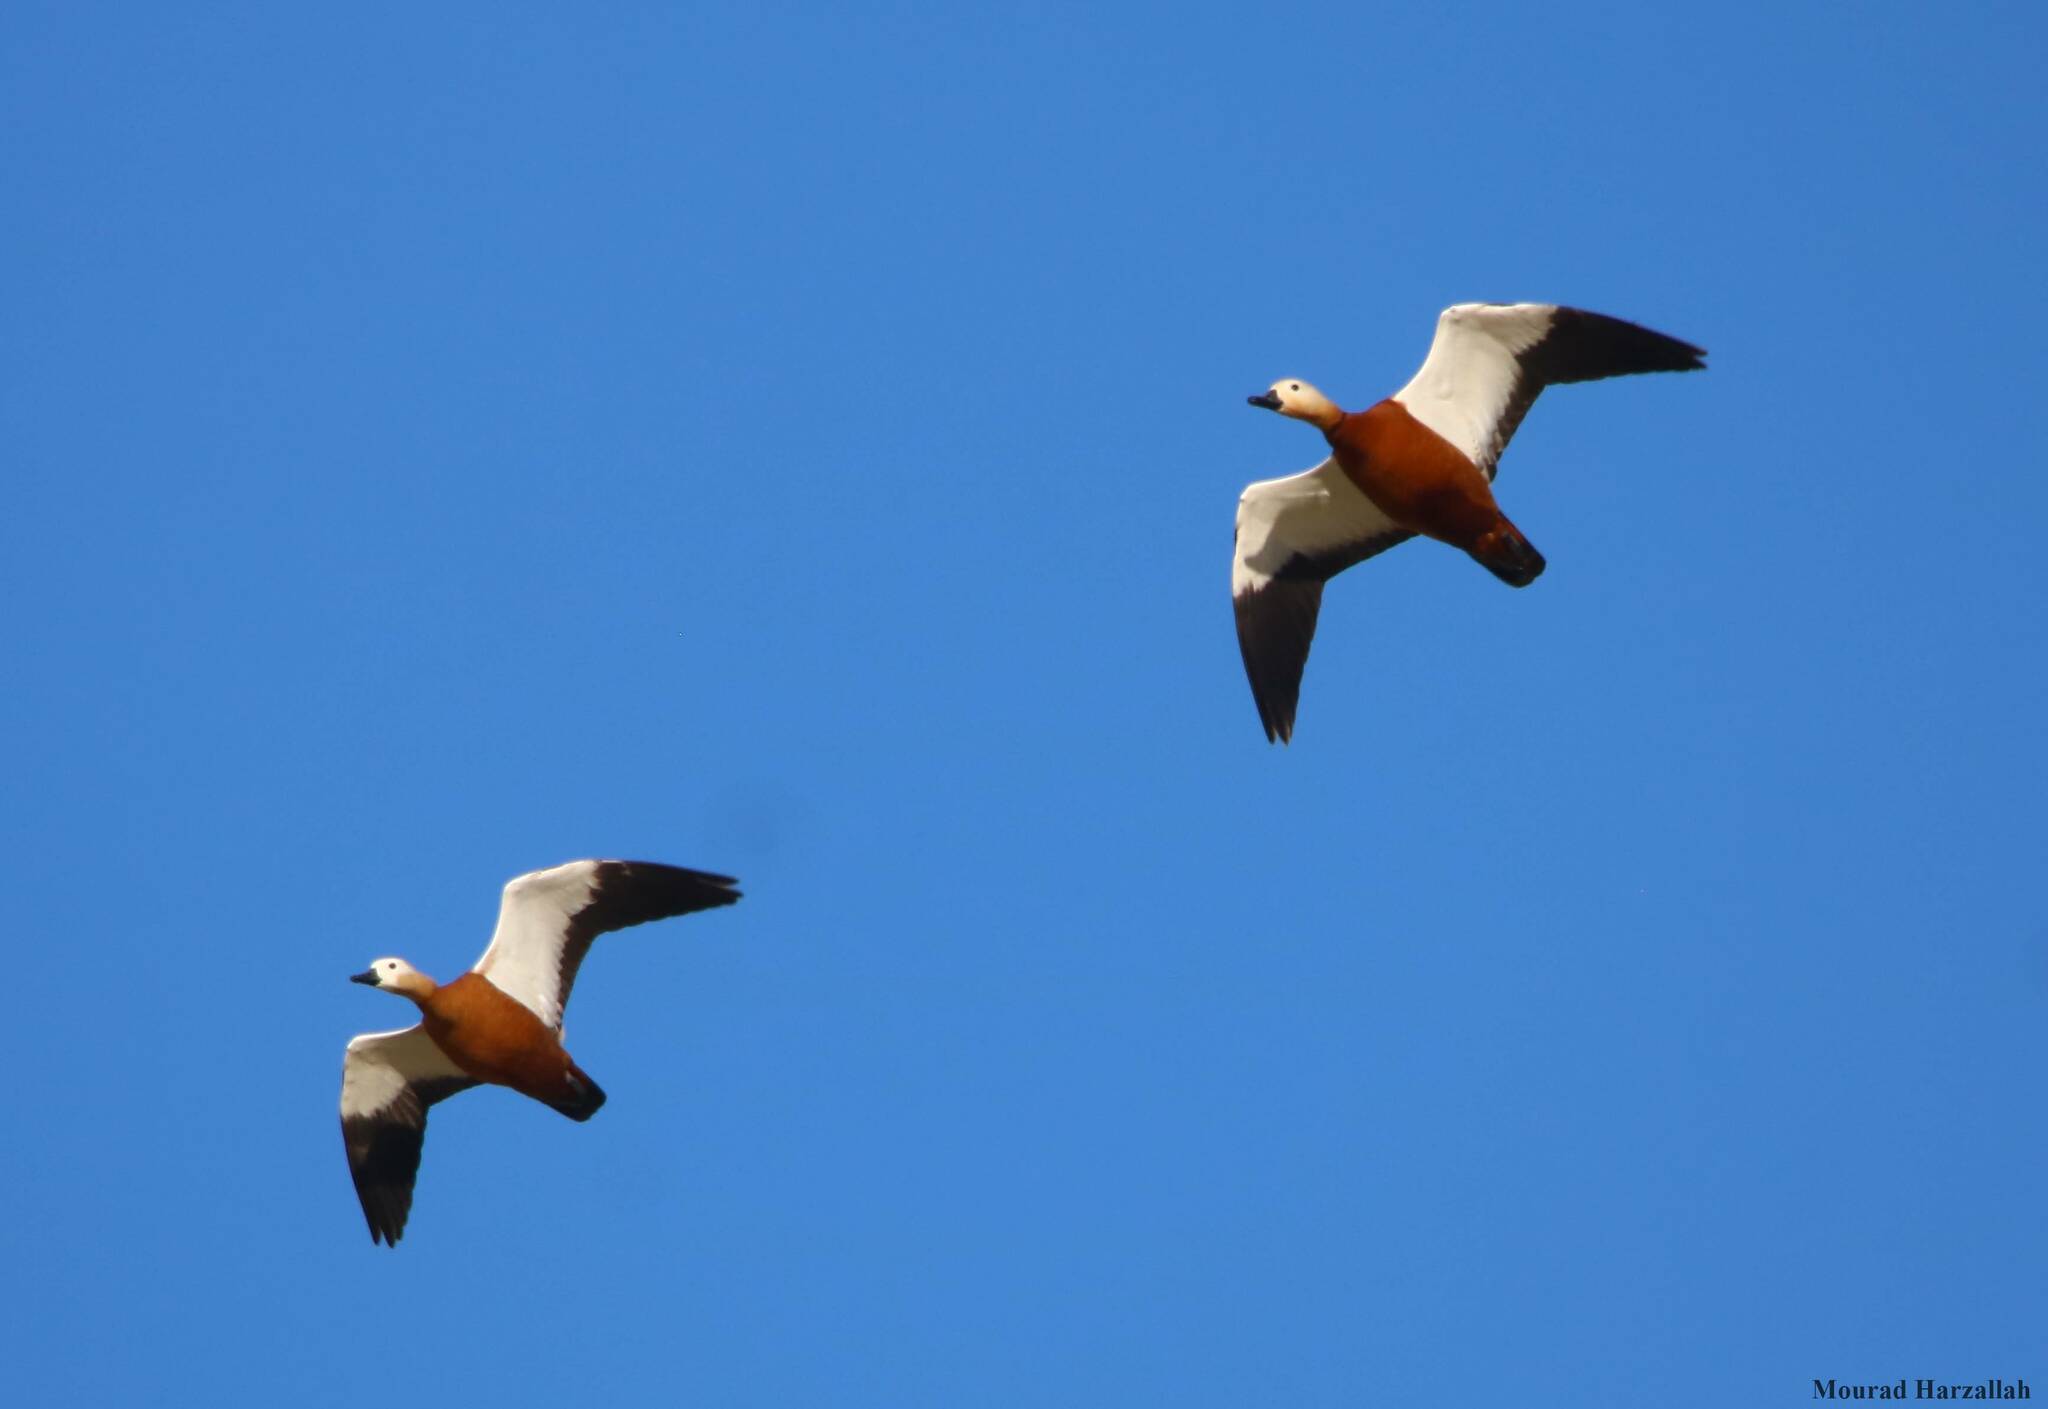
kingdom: Animalia
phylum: Chordata
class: Aves
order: Anseriformes
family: Anatidae
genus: Tadorna
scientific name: Tadorna ferruginea
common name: Ruddy shelduck
